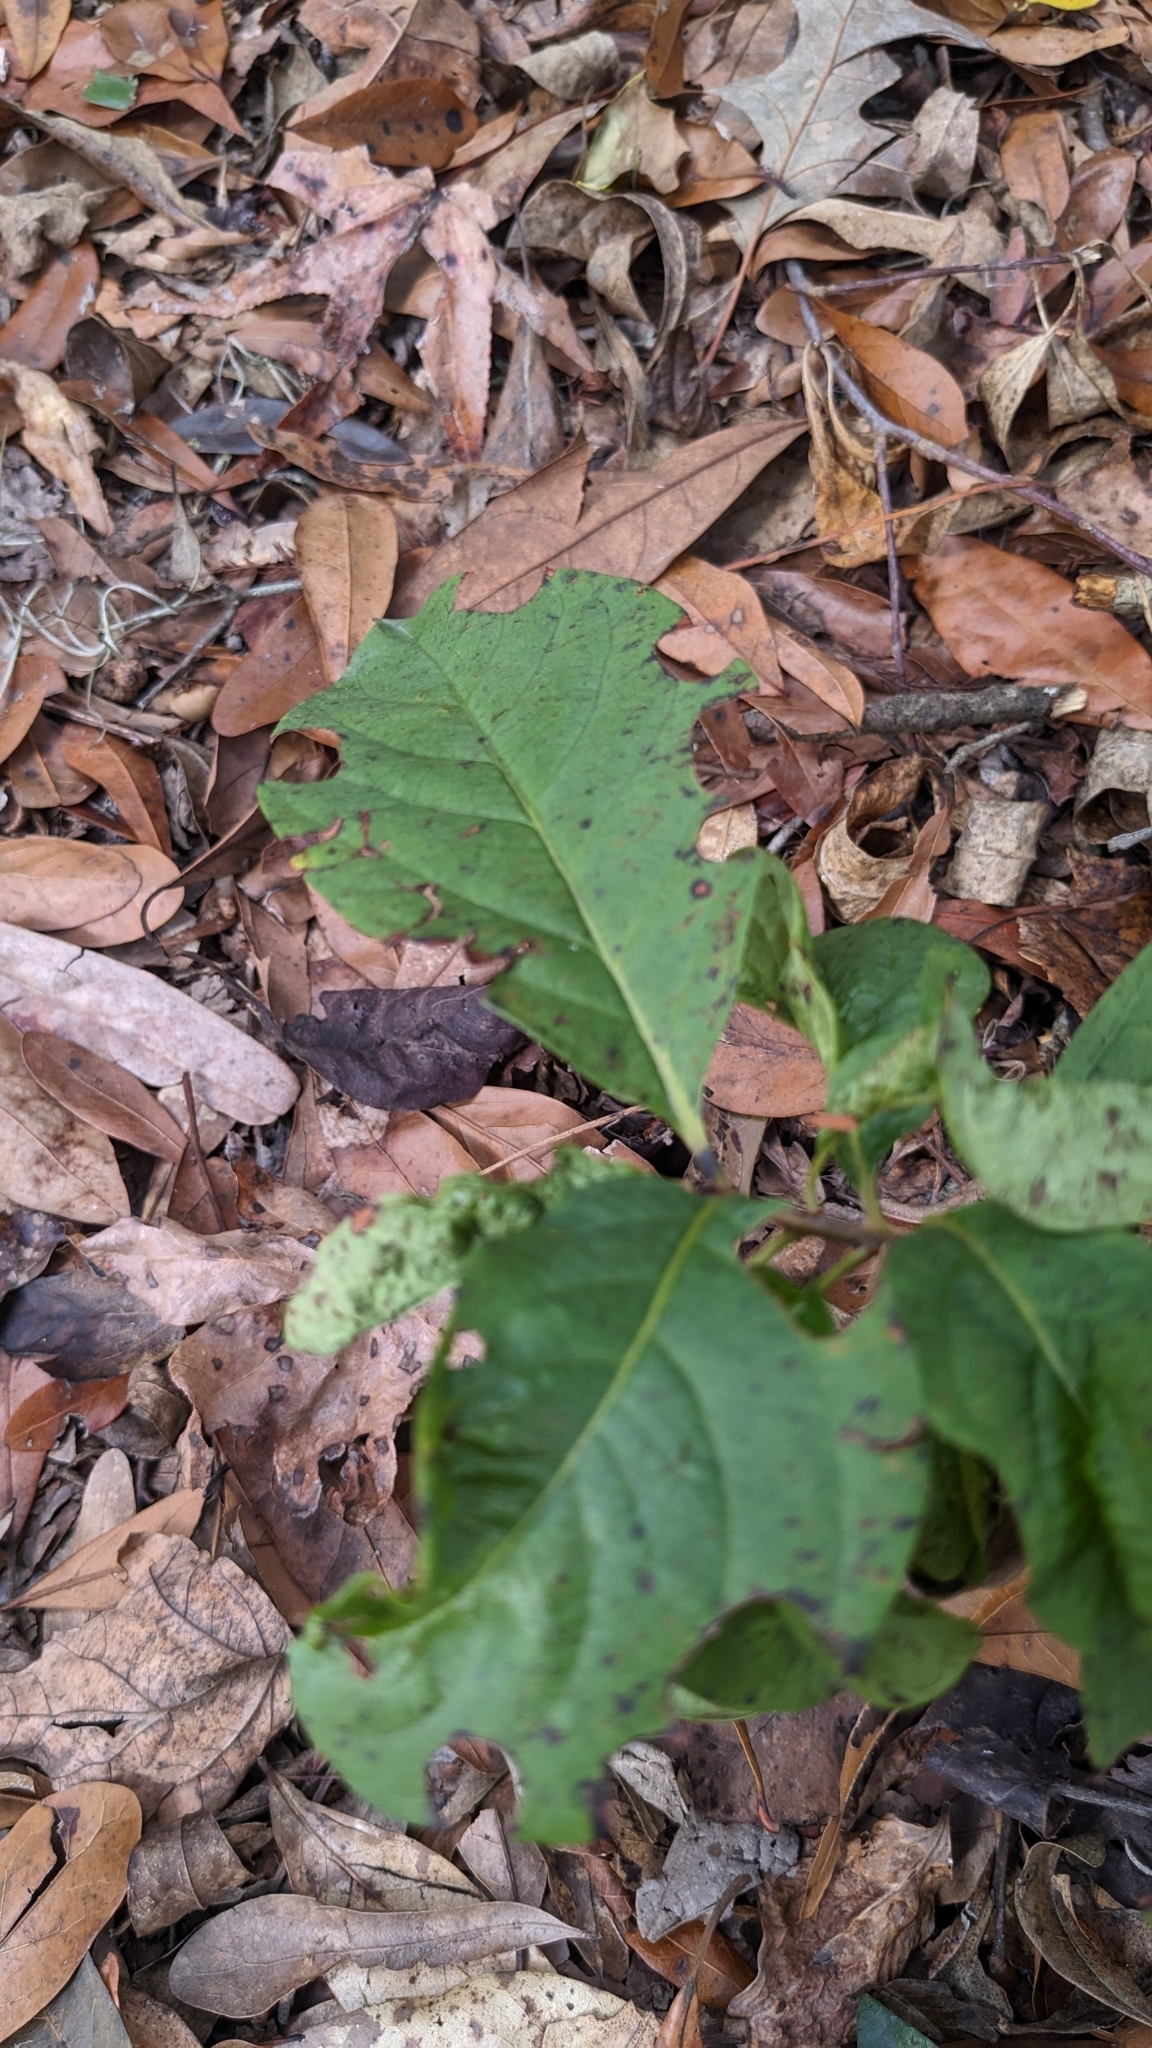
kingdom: Plantae
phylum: Tracheophyta
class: Magnoliopsida
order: Ericales
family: Ebenaceae
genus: Diospyros
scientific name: Diospyros virginiana
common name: Persimmon
